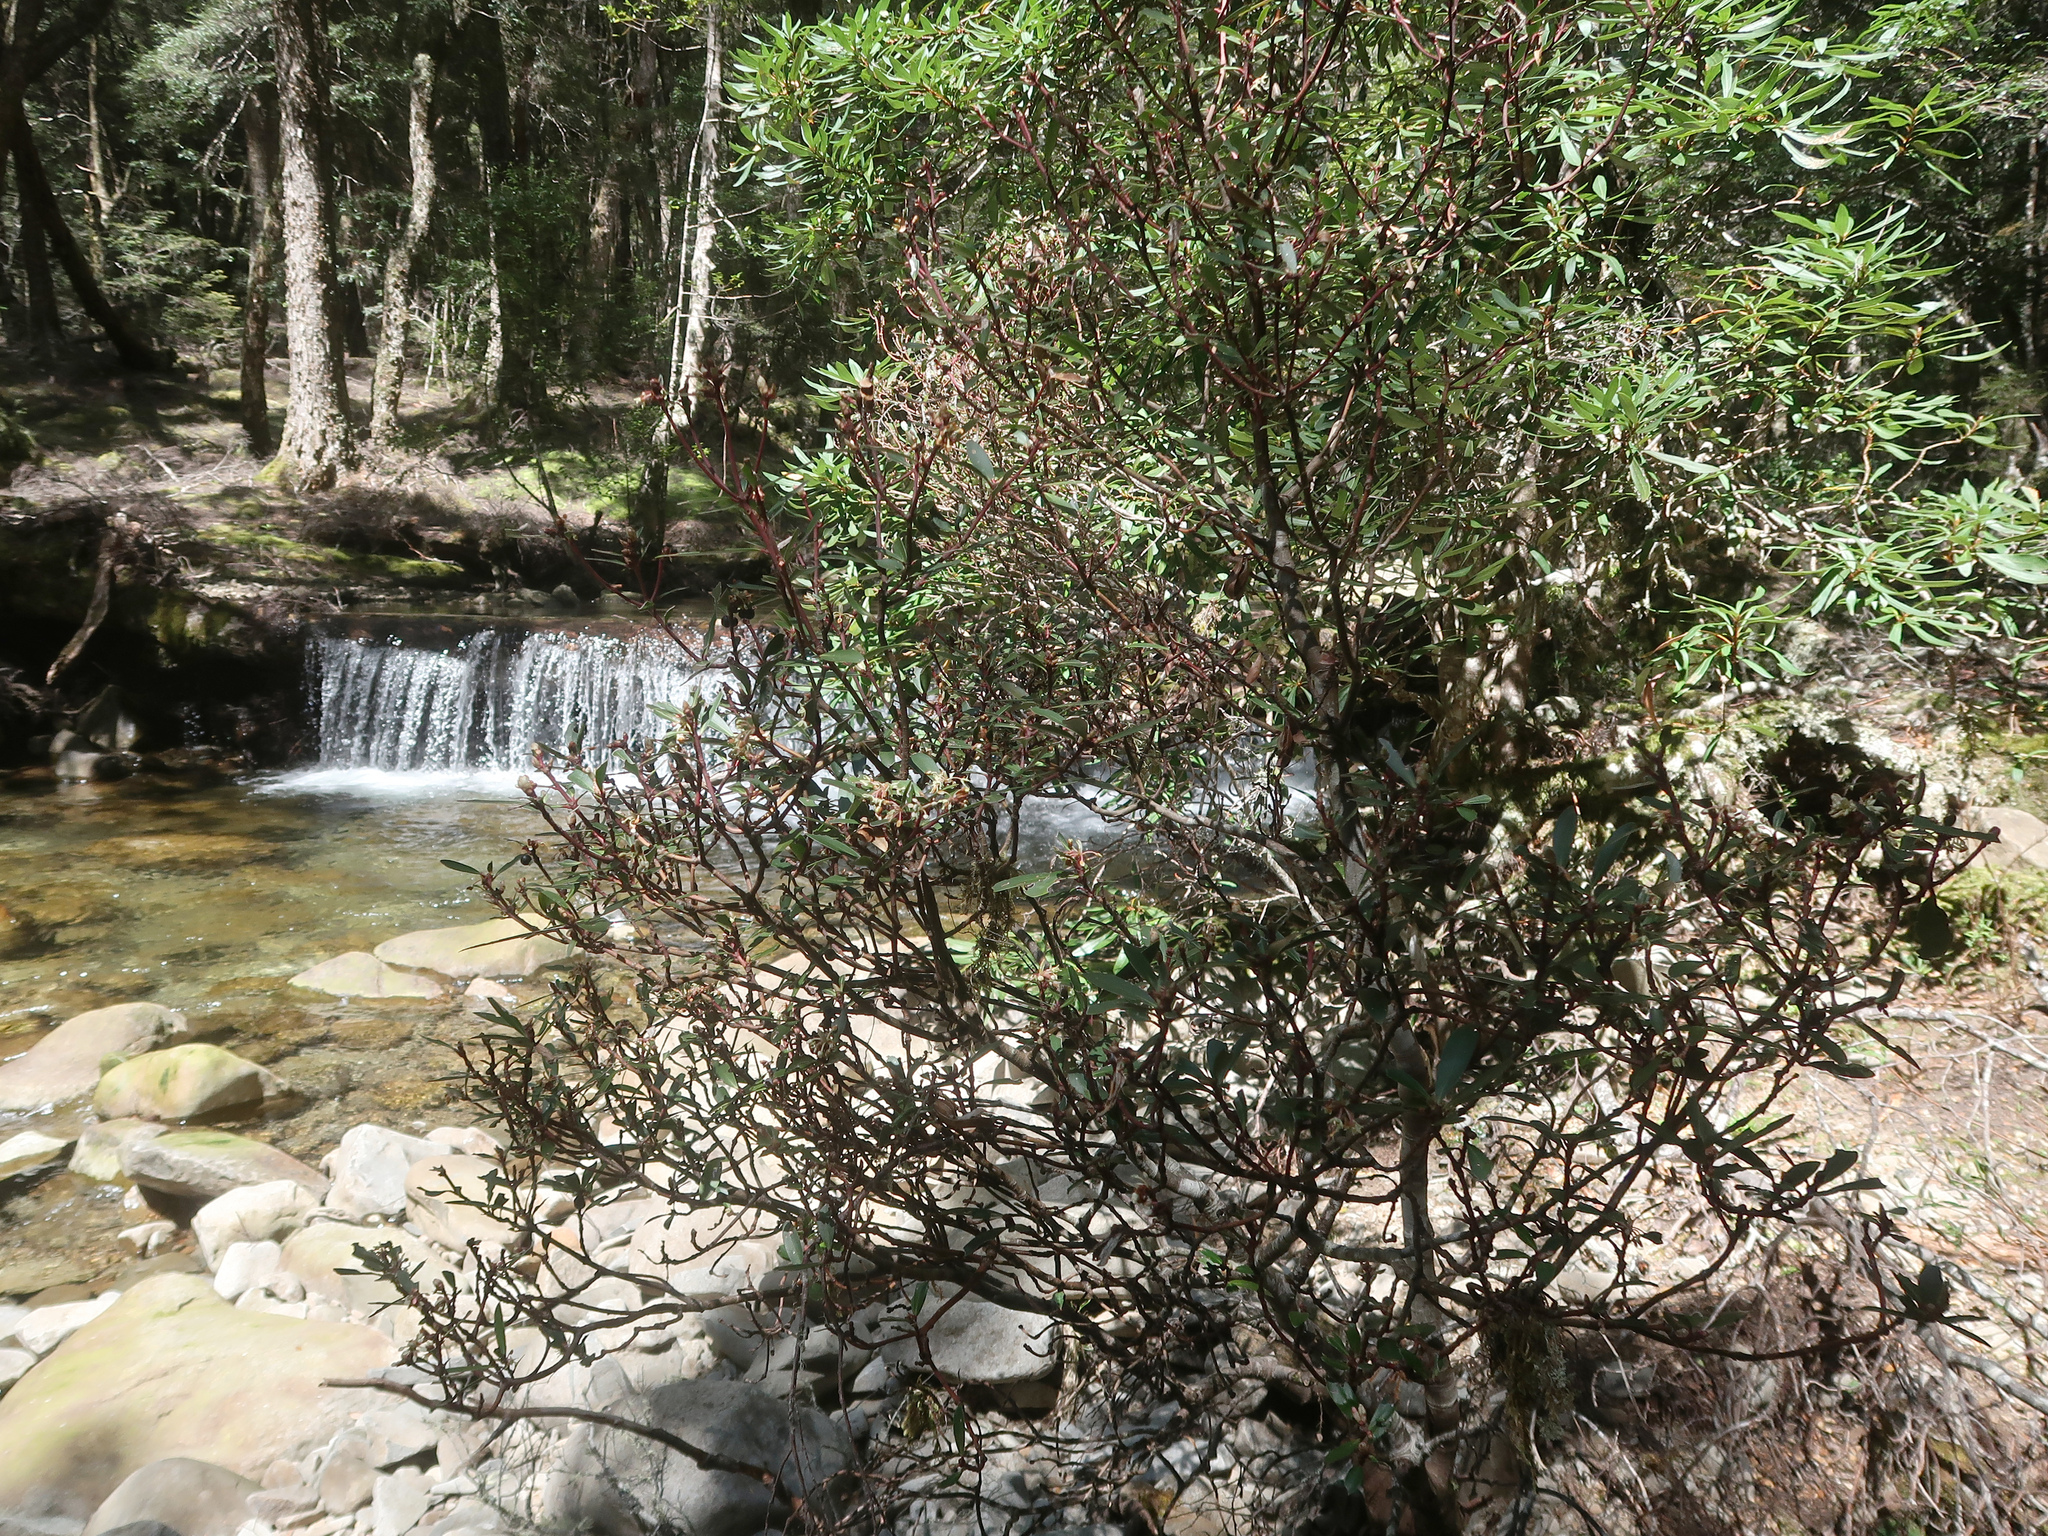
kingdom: Plantae
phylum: Tracheophyta
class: Magnoliopsida
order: Canellales
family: Winteraceae
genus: Drimys
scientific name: Drimys aromatica
